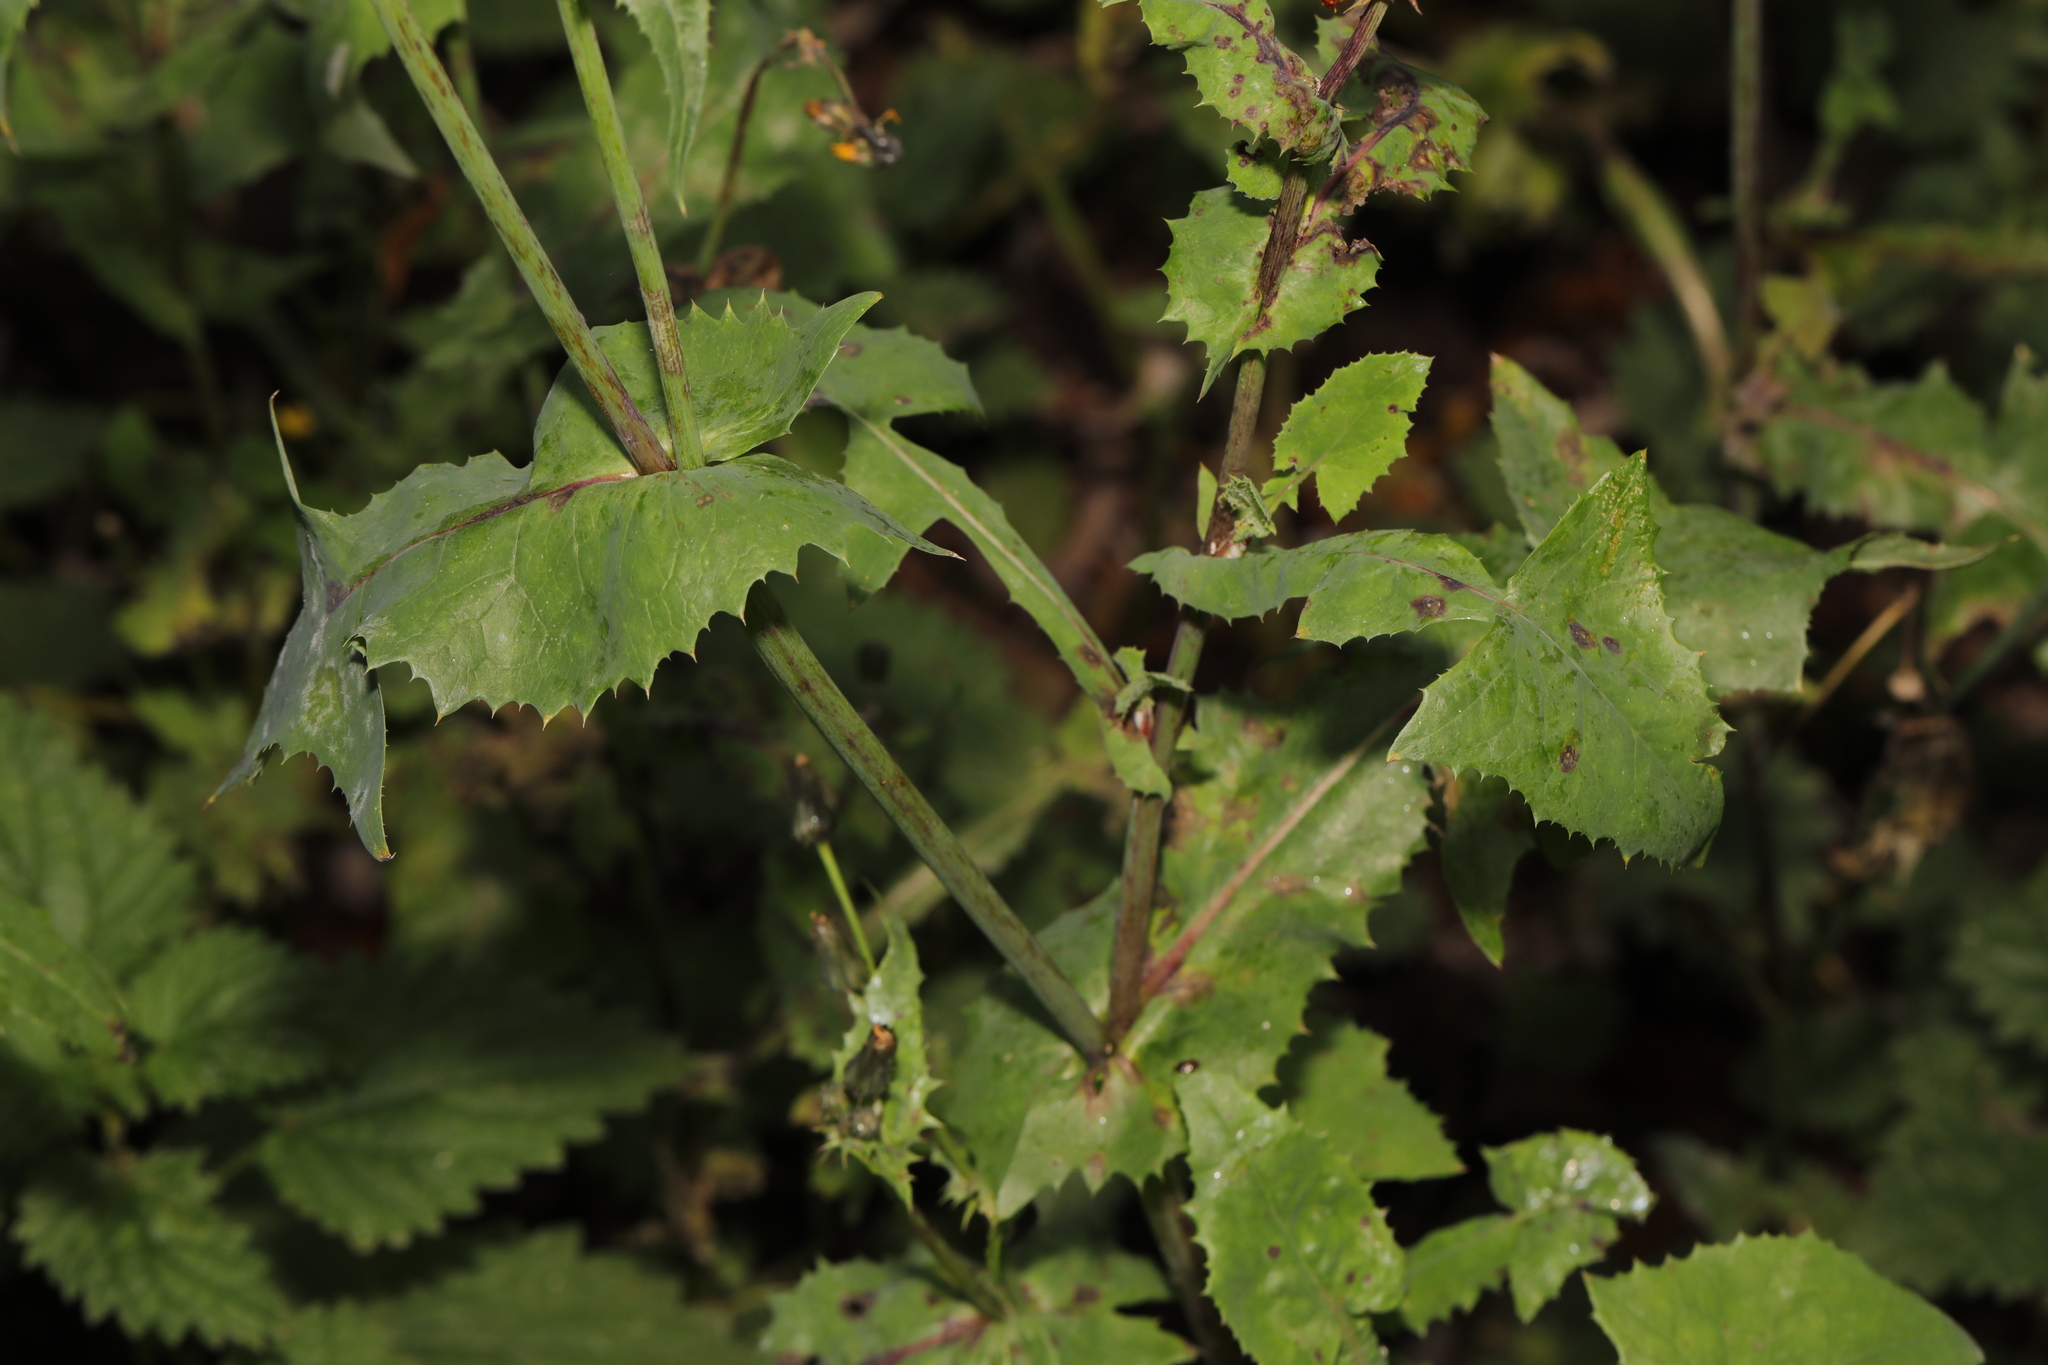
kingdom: Plantae
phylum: Tracheophyta
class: Magnoliopsida
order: Asterales
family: Asteraceae
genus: Sonchus
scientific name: Sonchus oleraceus
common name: Common sowthistle
